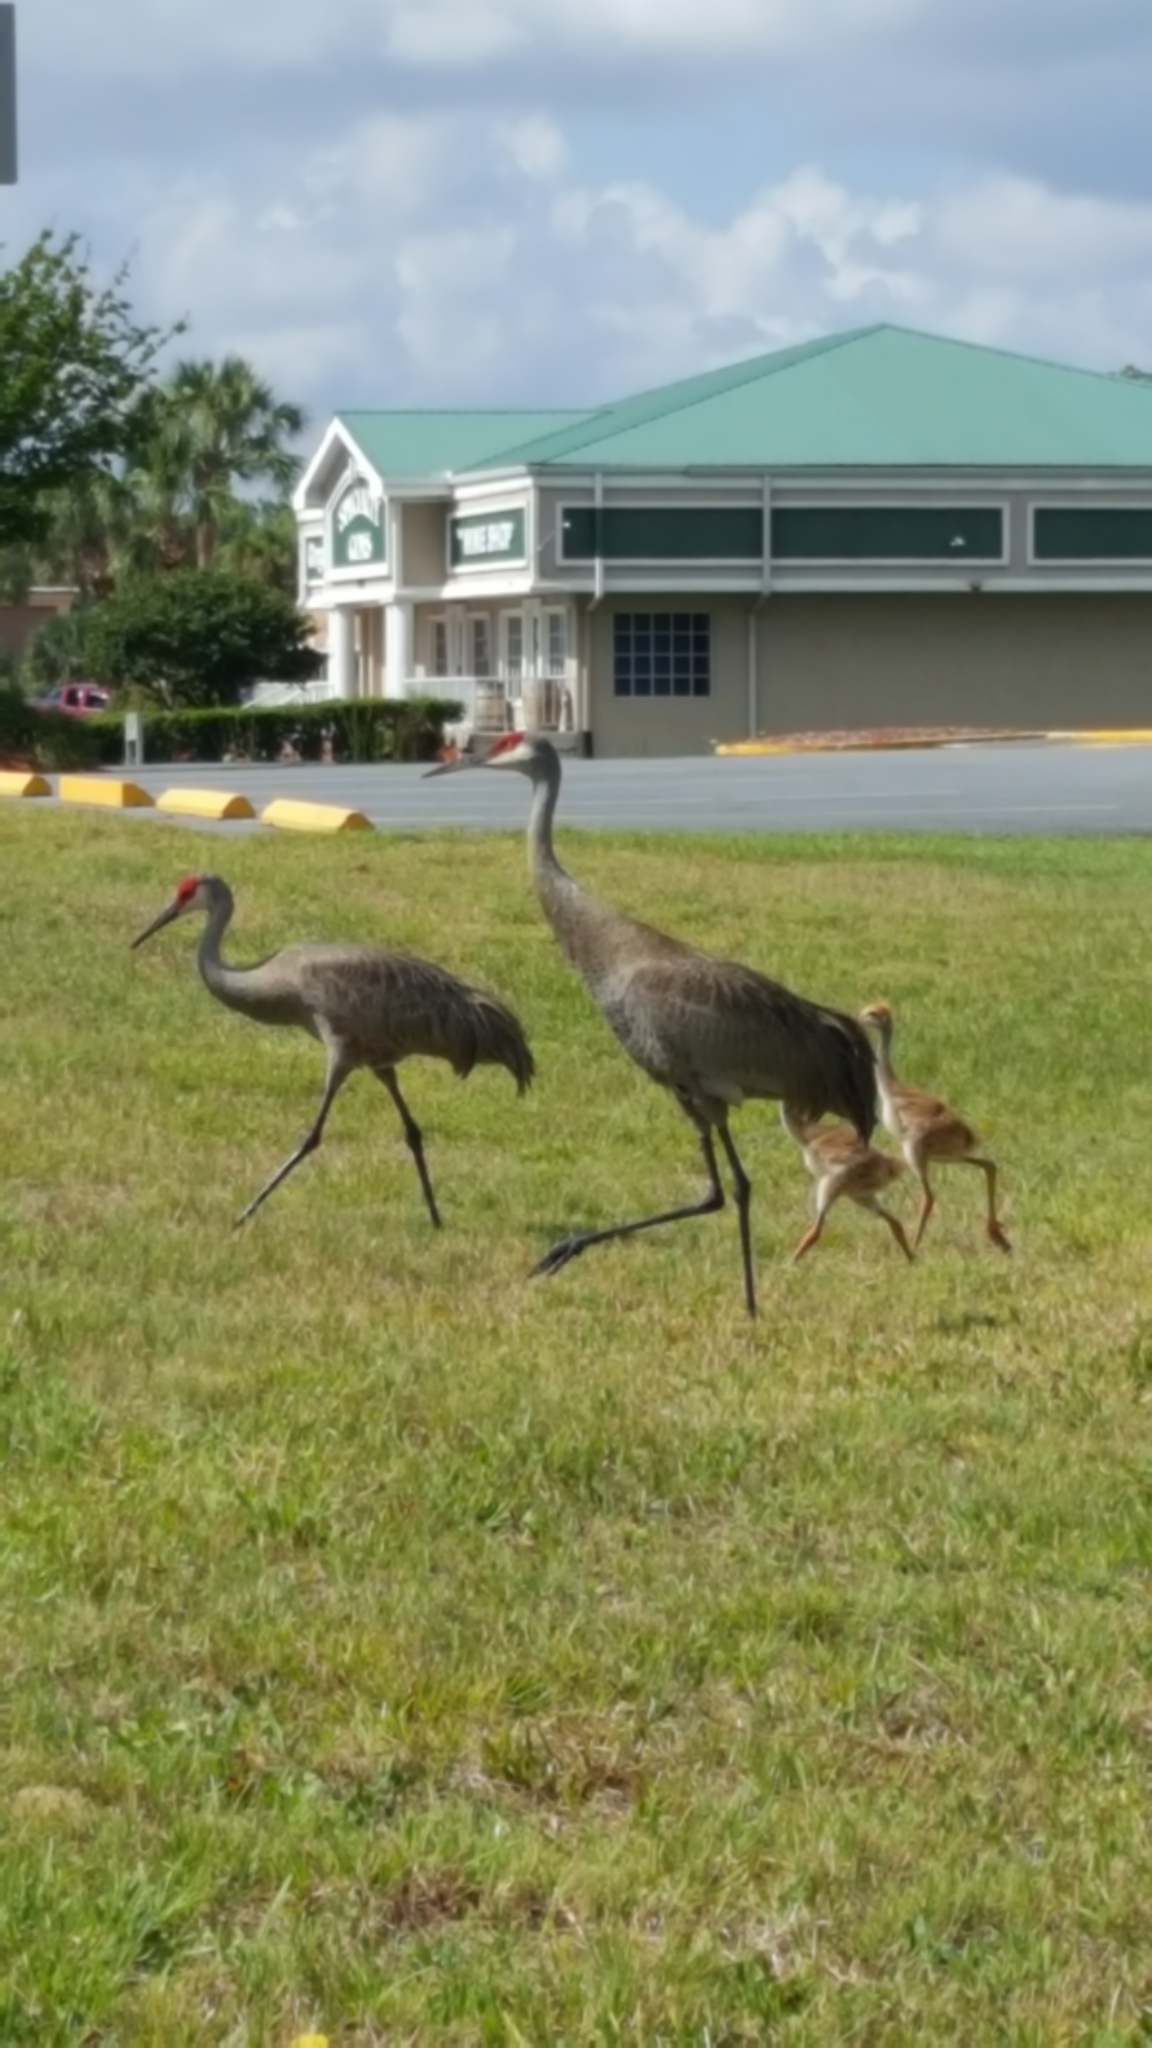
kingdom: Animalia
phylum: Chordata
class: Aves
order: Gruiformes
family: Gruidae
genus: Grus
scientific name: Grus canadensis
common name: Sandhill crane
